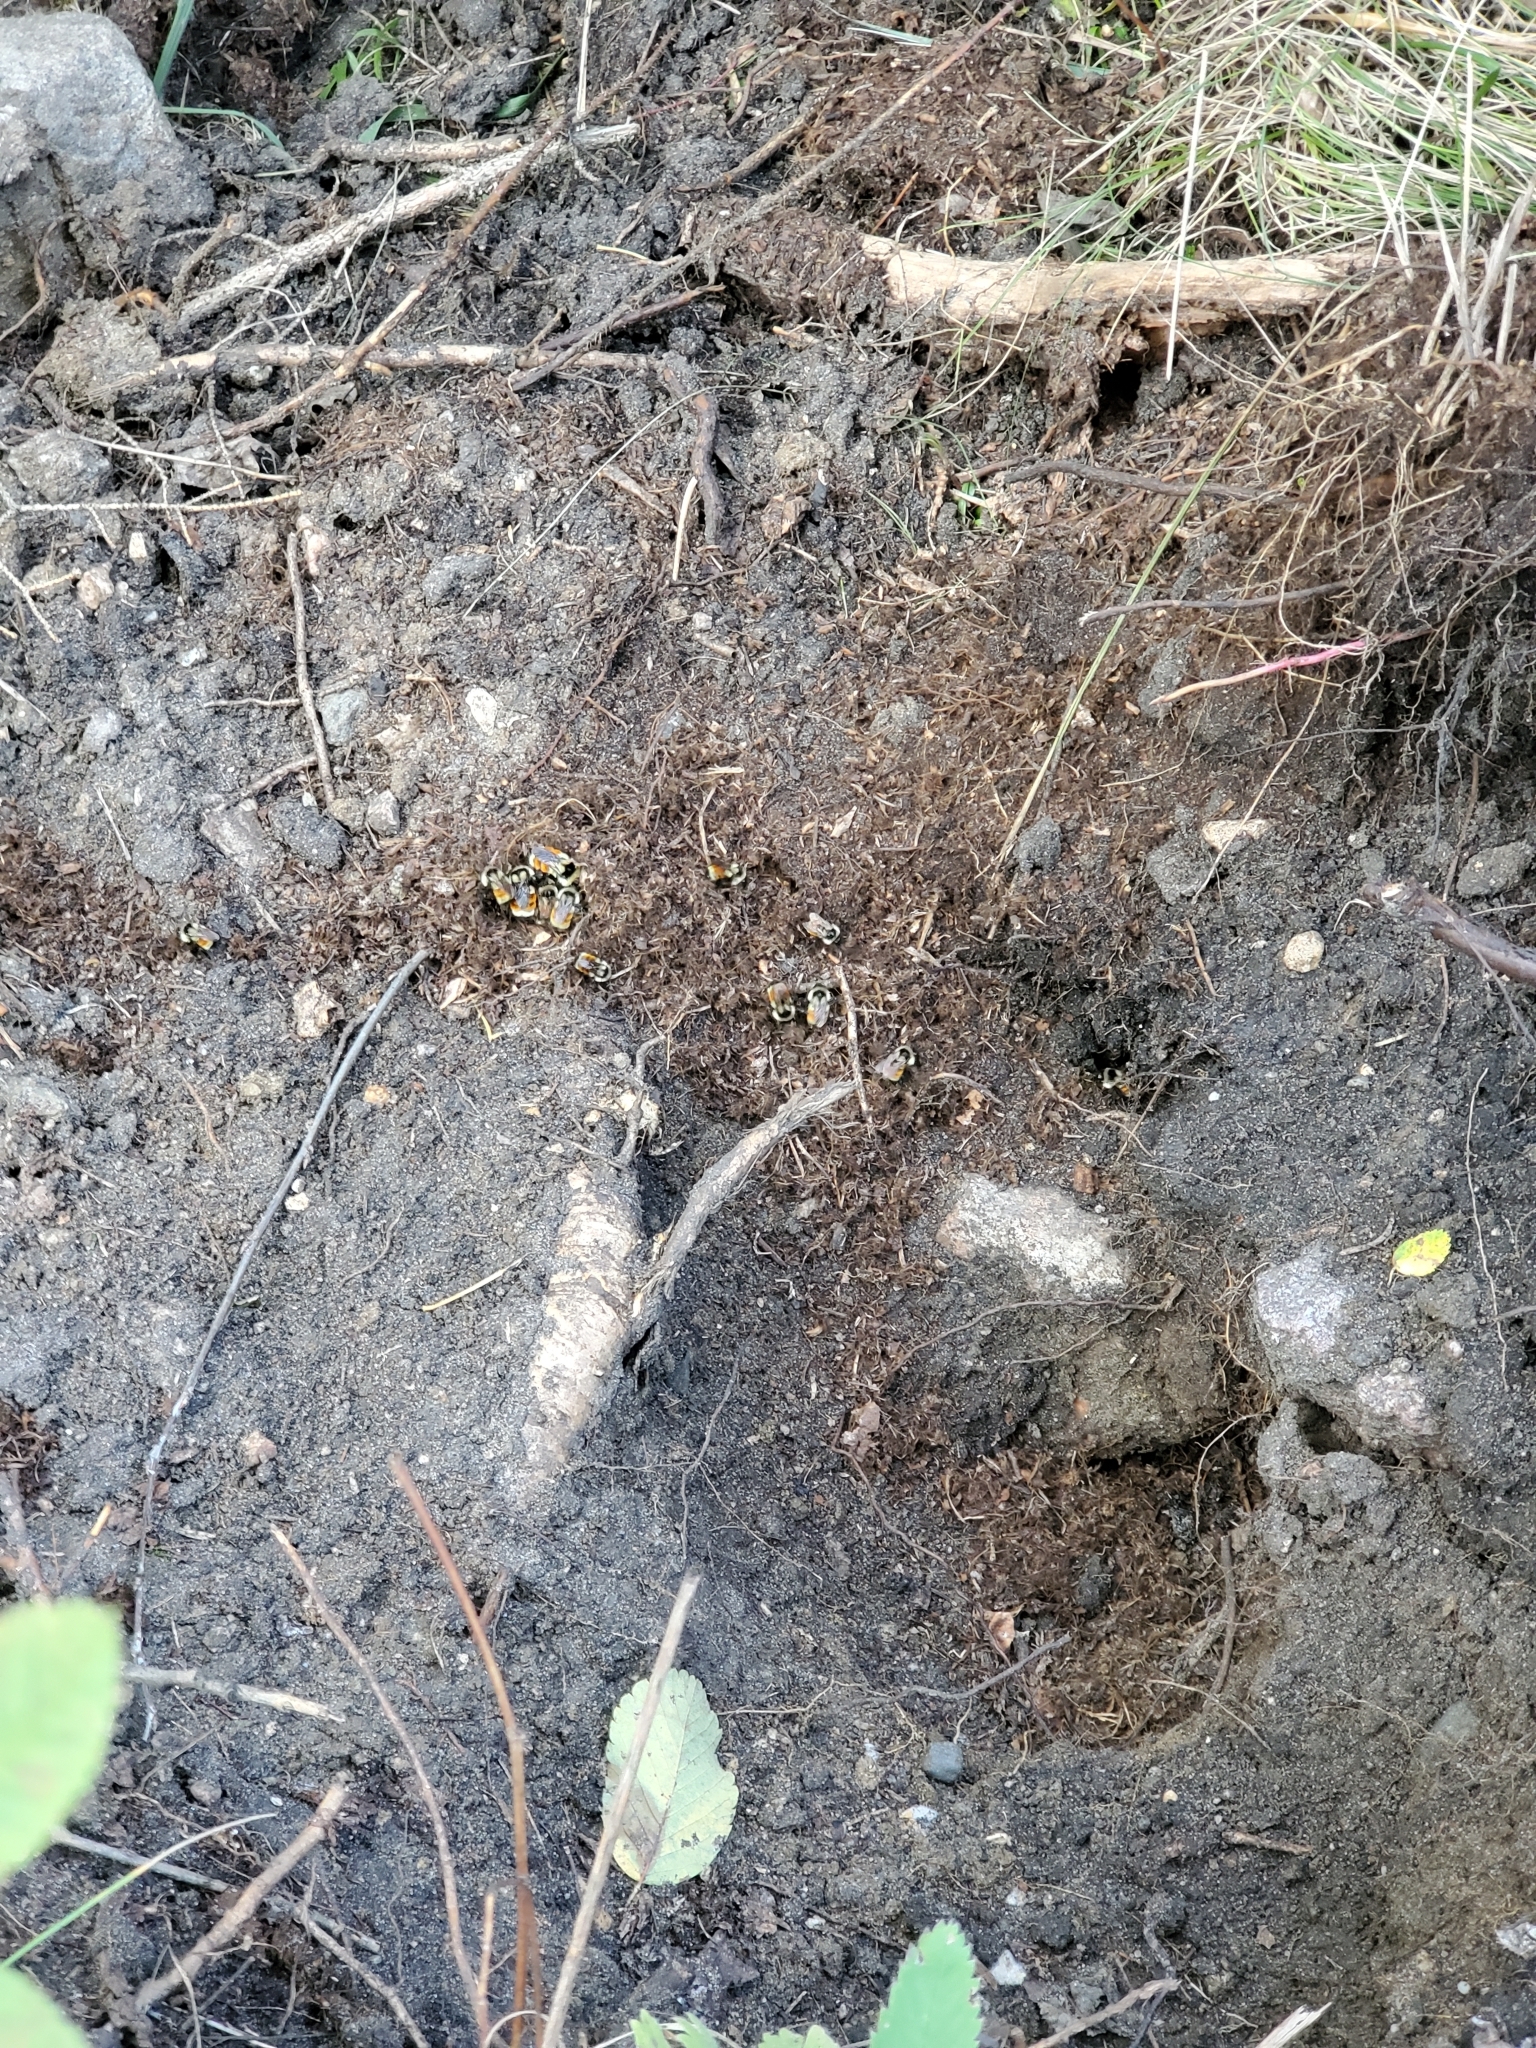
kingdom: Animalia
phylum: Arthropoda
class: Insecta
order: Hymenoptera
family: Apidae
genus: Bombus
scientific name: Bombus ternarius
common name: Tri-colored bumble bee
